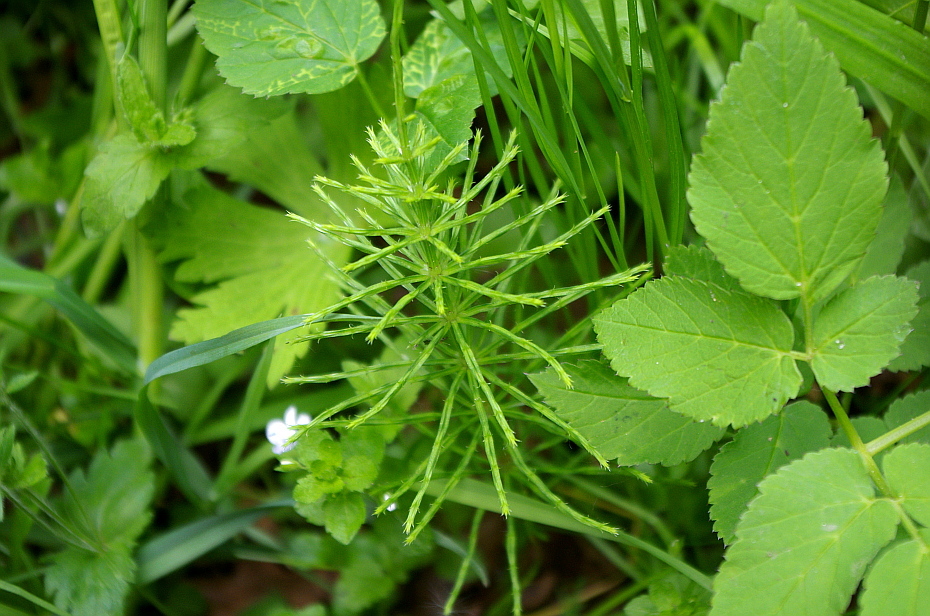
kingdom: Plantae
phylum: Tracheophyta
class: Polypodiopsida
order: Equisetales
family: Equisetaceae
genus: Equisetum
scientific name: Equisetum arvense
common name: Field horsetail
